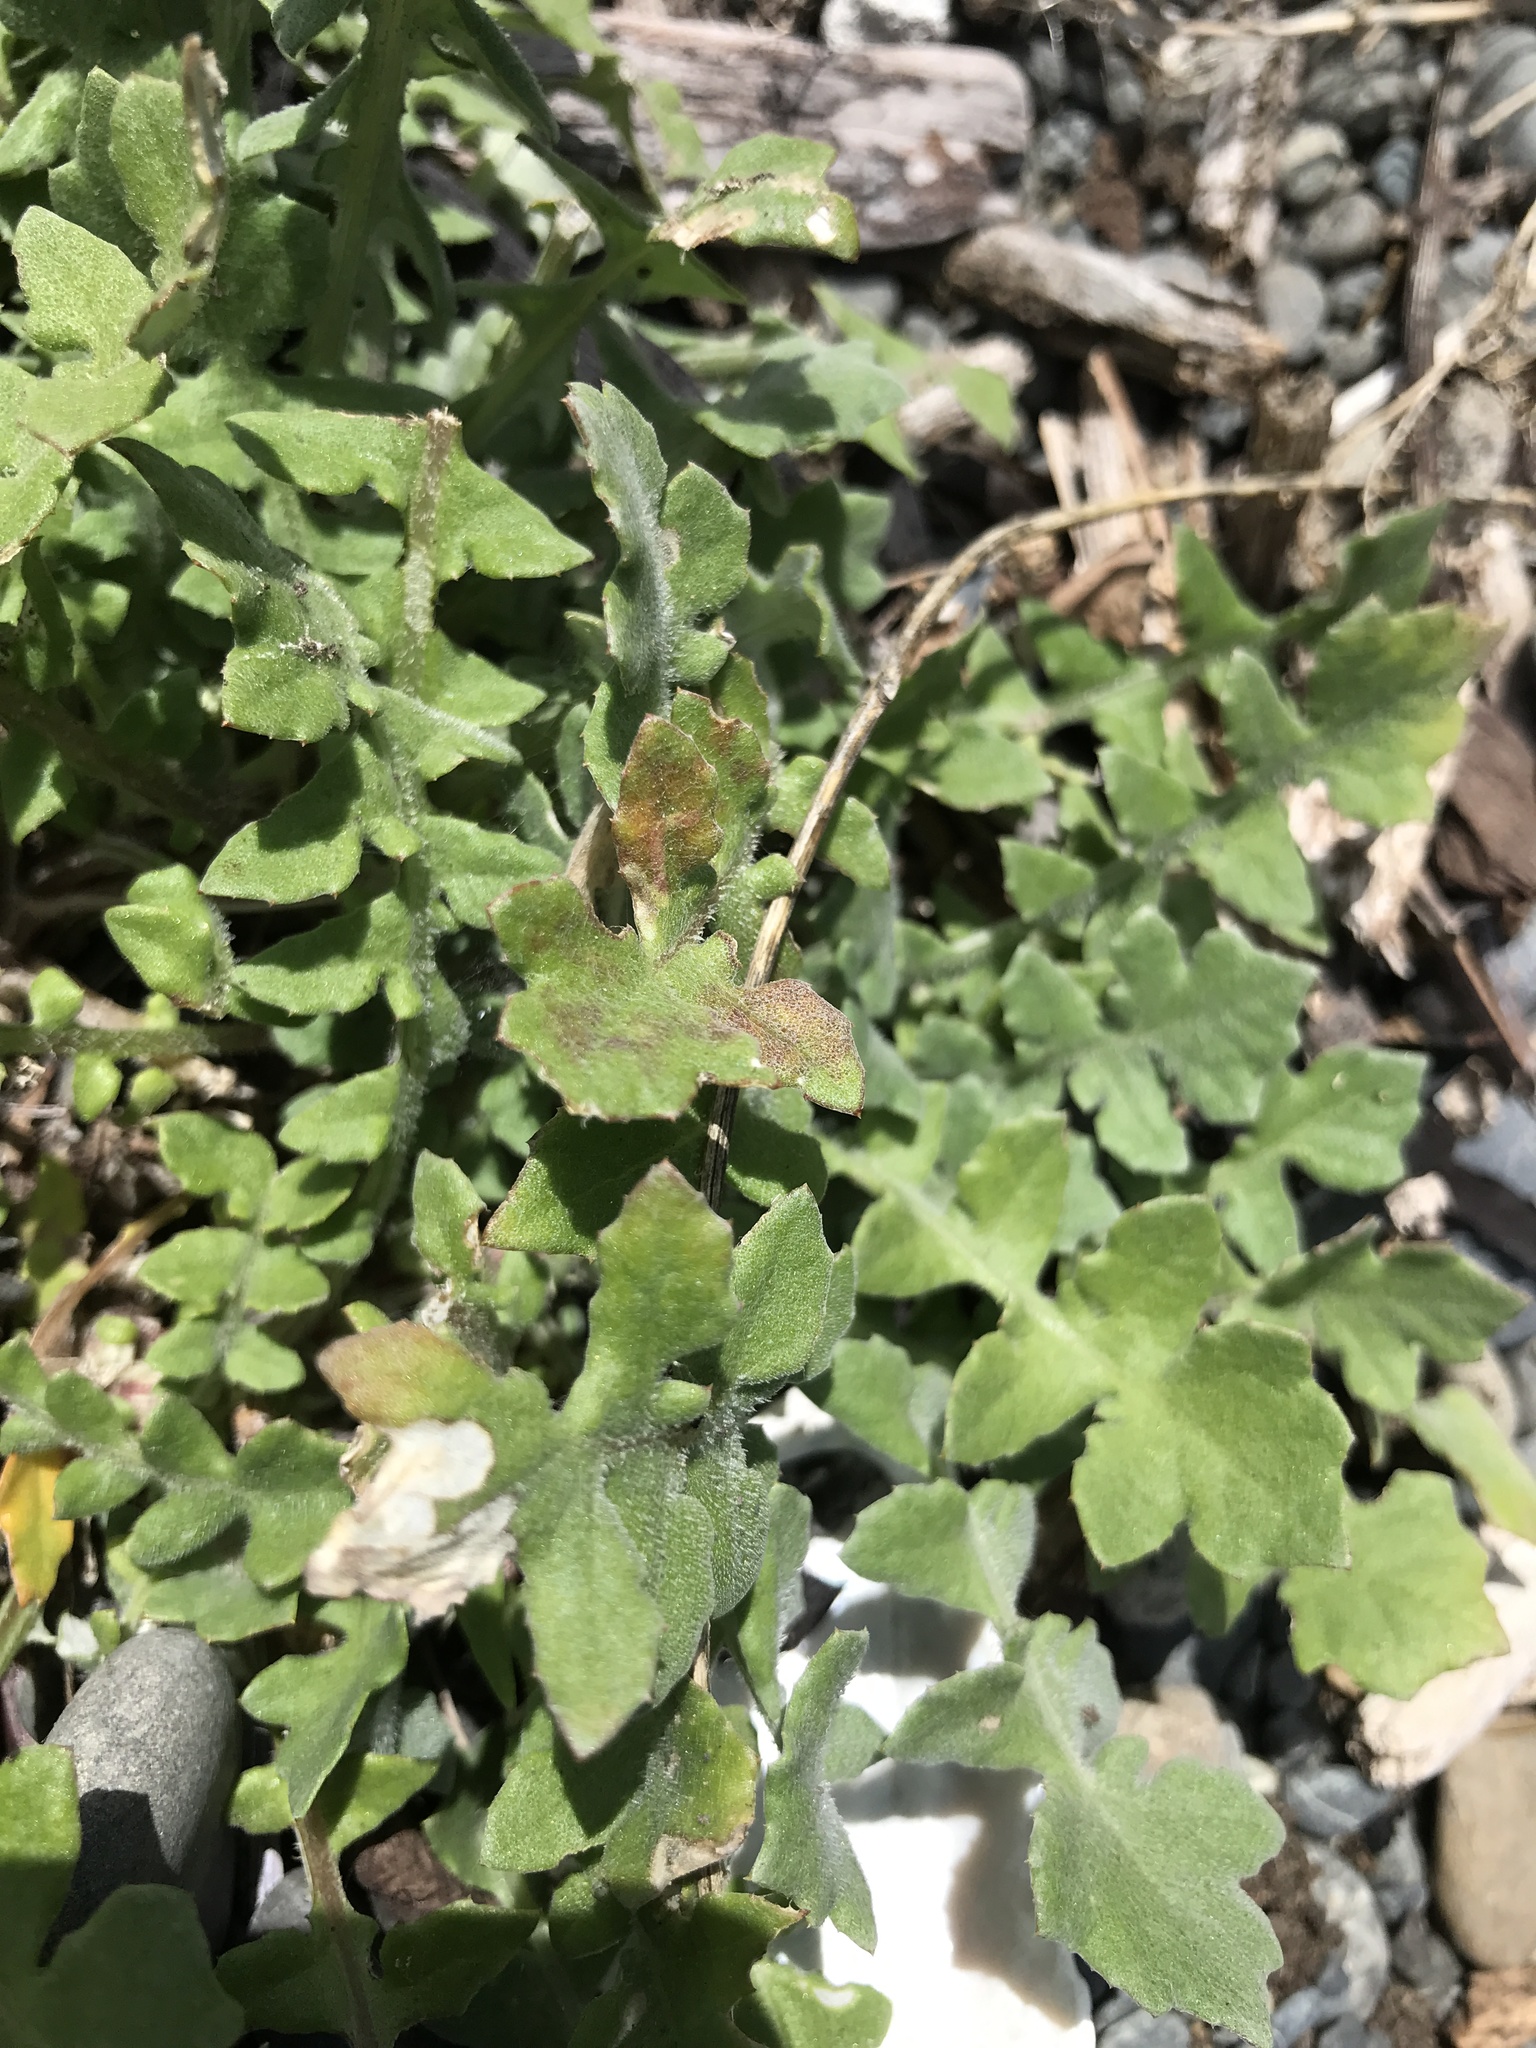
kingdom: Plantae
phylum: Tracheophyta
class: Magnoliopsida
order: Asterales
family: Asteraceae
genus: Arctotheca
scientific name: Arctotheca calendula
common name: Capeweed
